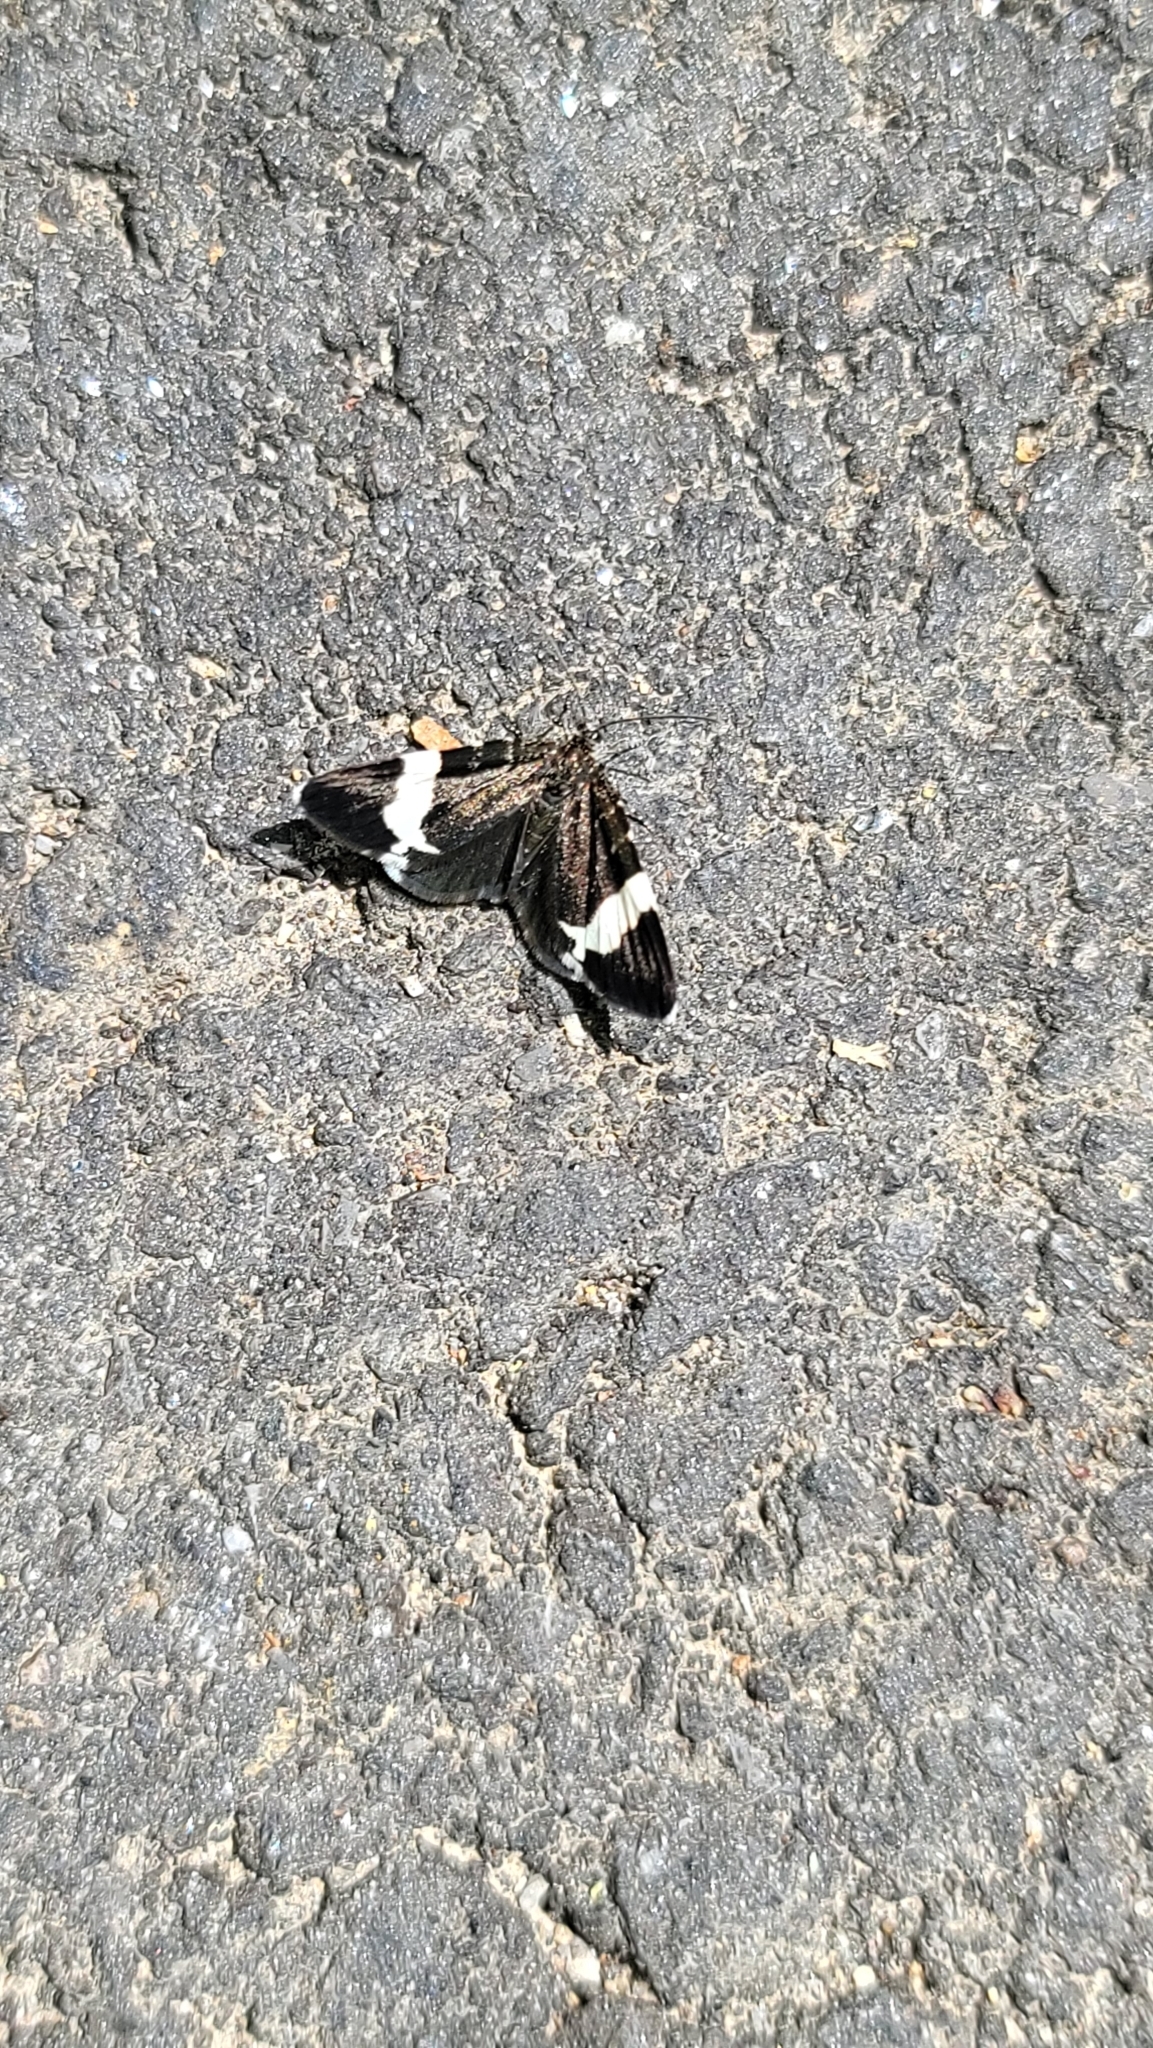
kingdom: Animalia
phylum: Arthropoda
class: Insecta
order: Lepidoptera
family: Geometridae
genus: Trichodezia
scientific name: Trichodezia albovittata
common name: White striped black
